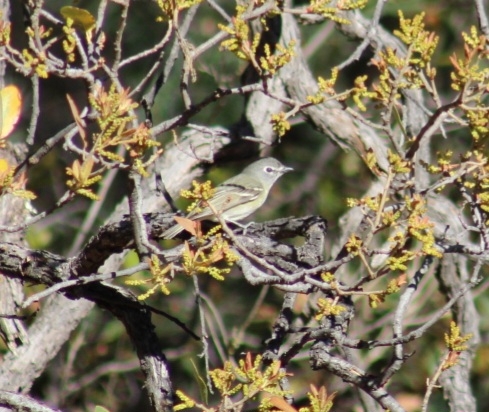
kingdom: Animalia
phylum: Chordata
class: Aves
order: Passeriformes
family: Vireonidae
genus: Vireo
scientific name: Vireo cassinii
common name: Cassin's vireo
